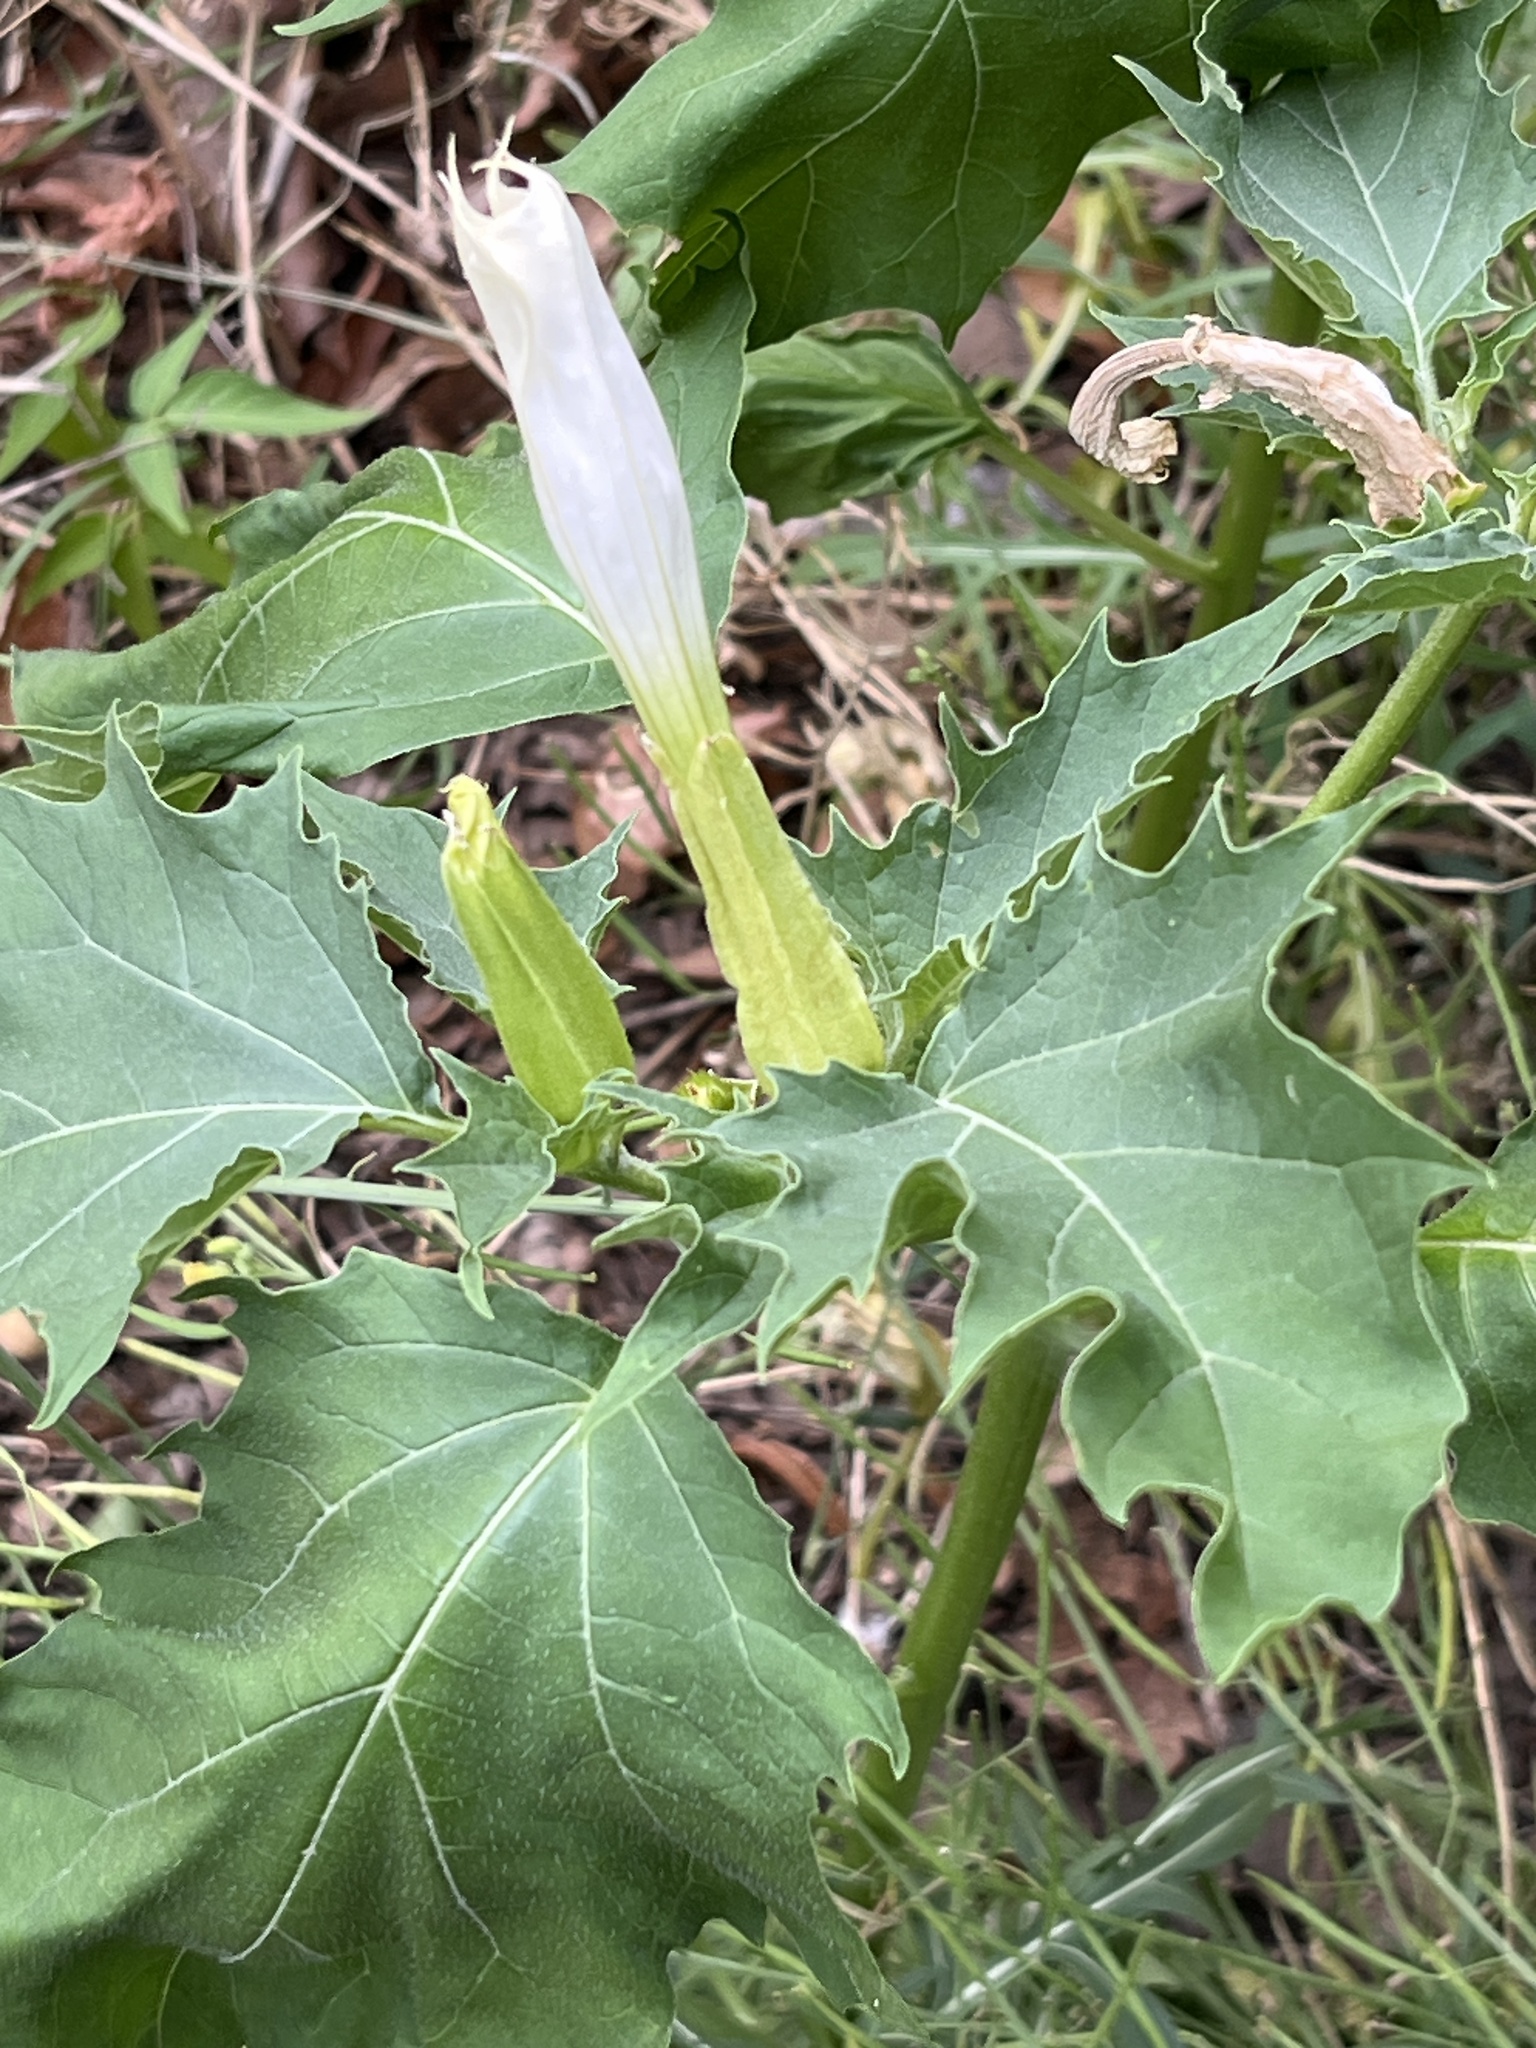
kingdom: Plantae
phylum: Tracheophyta
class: Magnoliopsida
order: Solanales
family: Solanaceae
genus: Datura
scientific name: Datura stramonium
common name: Thorn-apple
